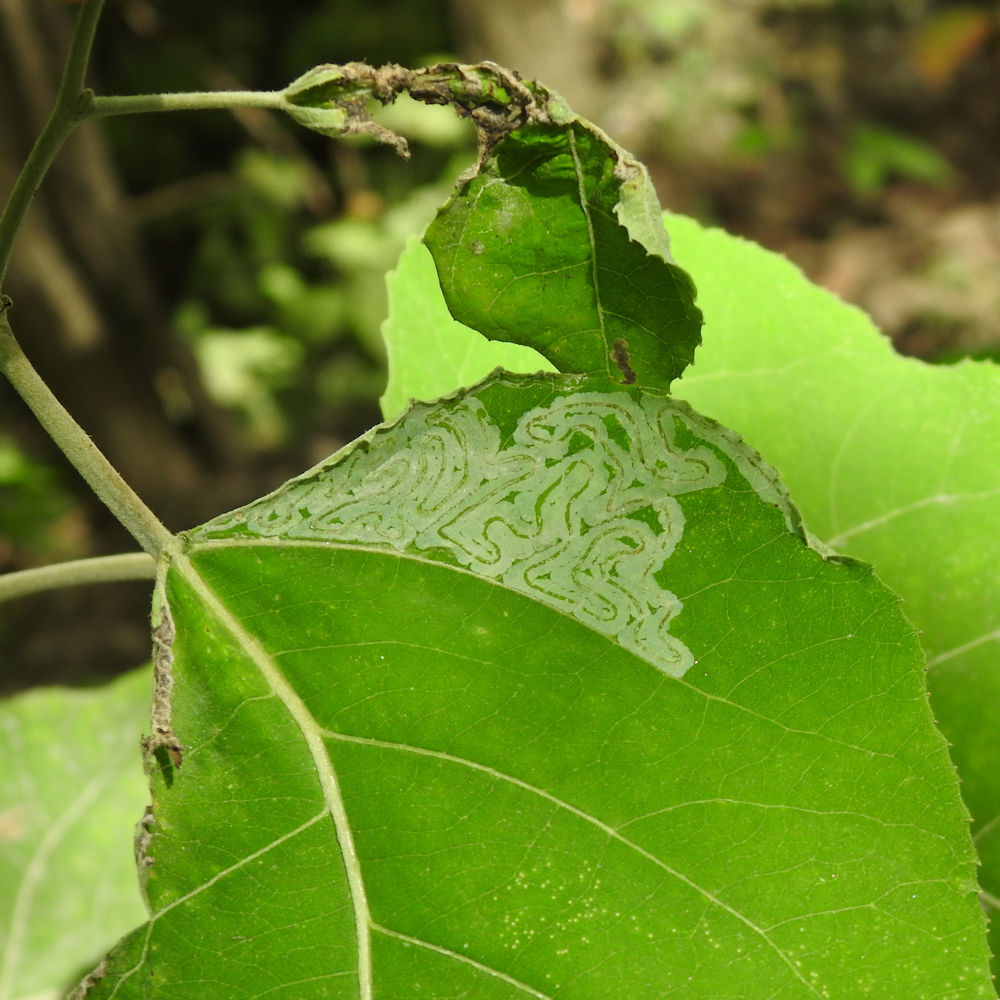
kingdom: Animalia
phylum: Arthropoda
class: Insecta
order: Lepidoptera
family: Gracillariidae
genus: Phyllocnistis
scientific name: Phyllocnistis populiella
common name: Aspen serpentine leafminer moth
